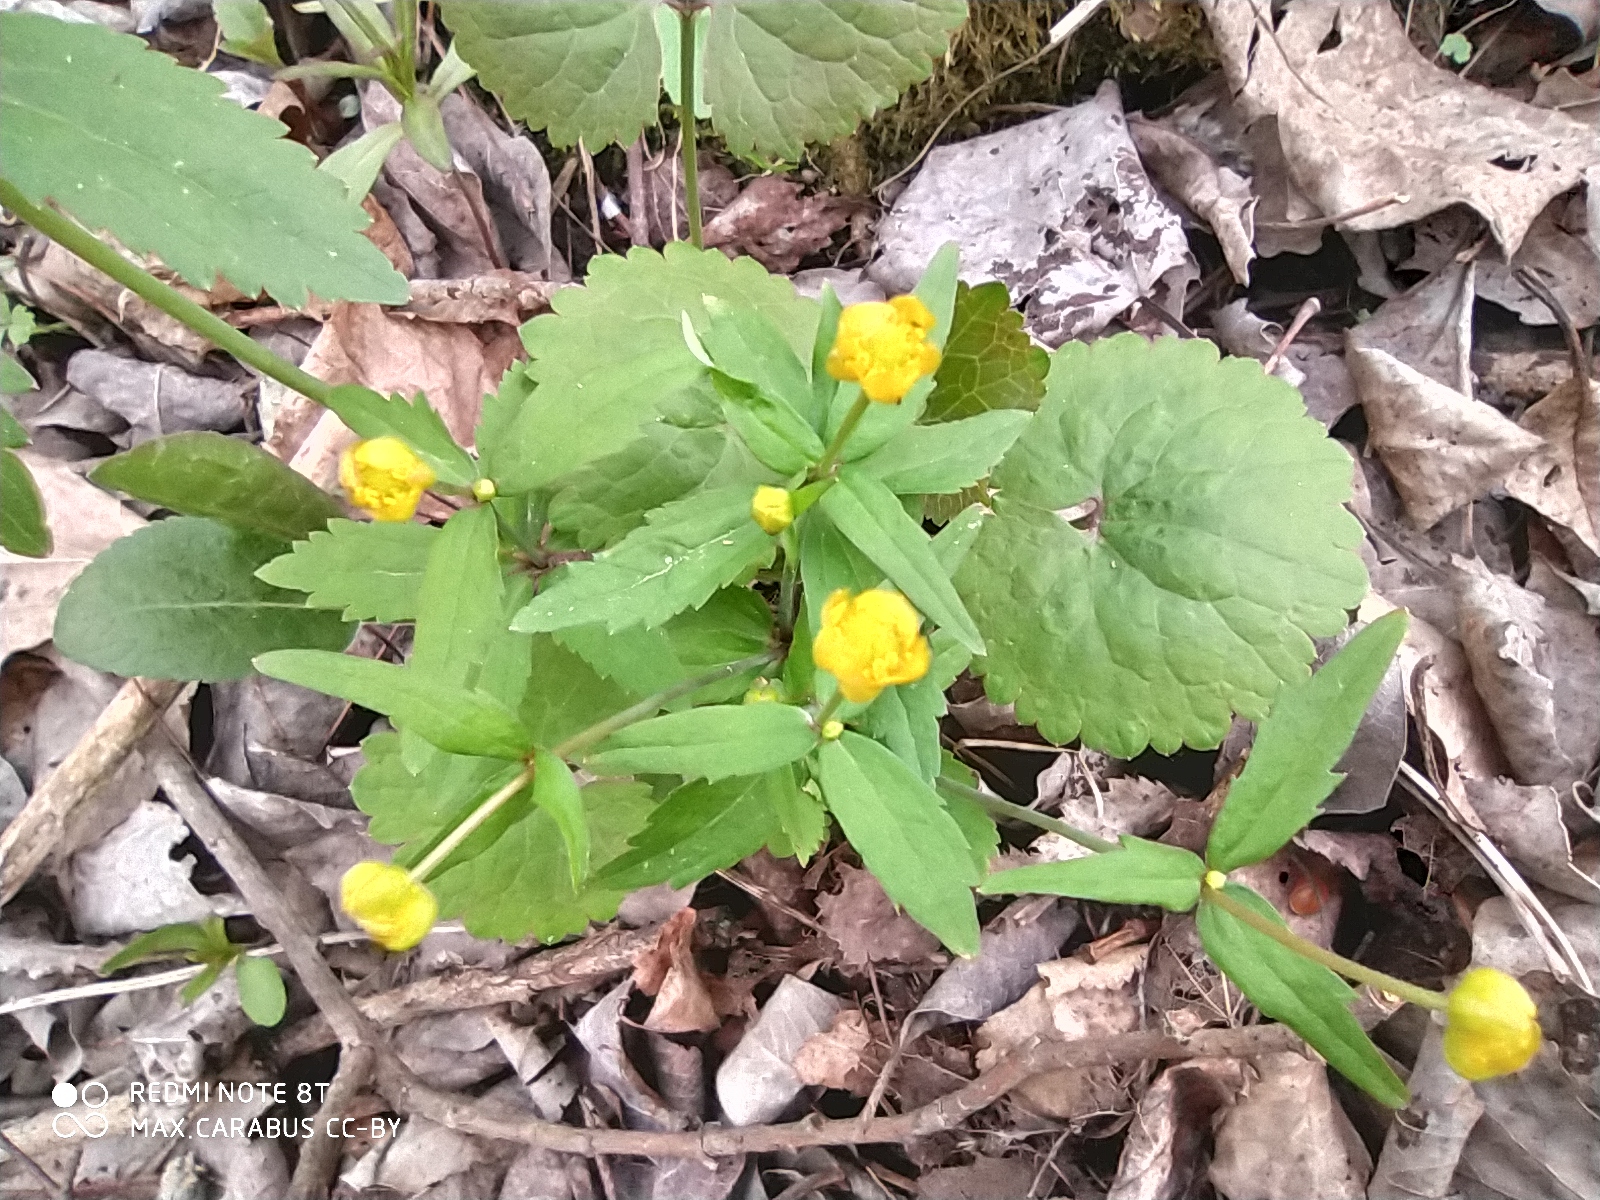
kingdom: Plantae
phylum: Tracheophyta
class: Magnoliopsida
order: Ranunculales
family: Ranunculaceae
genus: Ranunculus
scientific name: Ranunculus cassubicus
